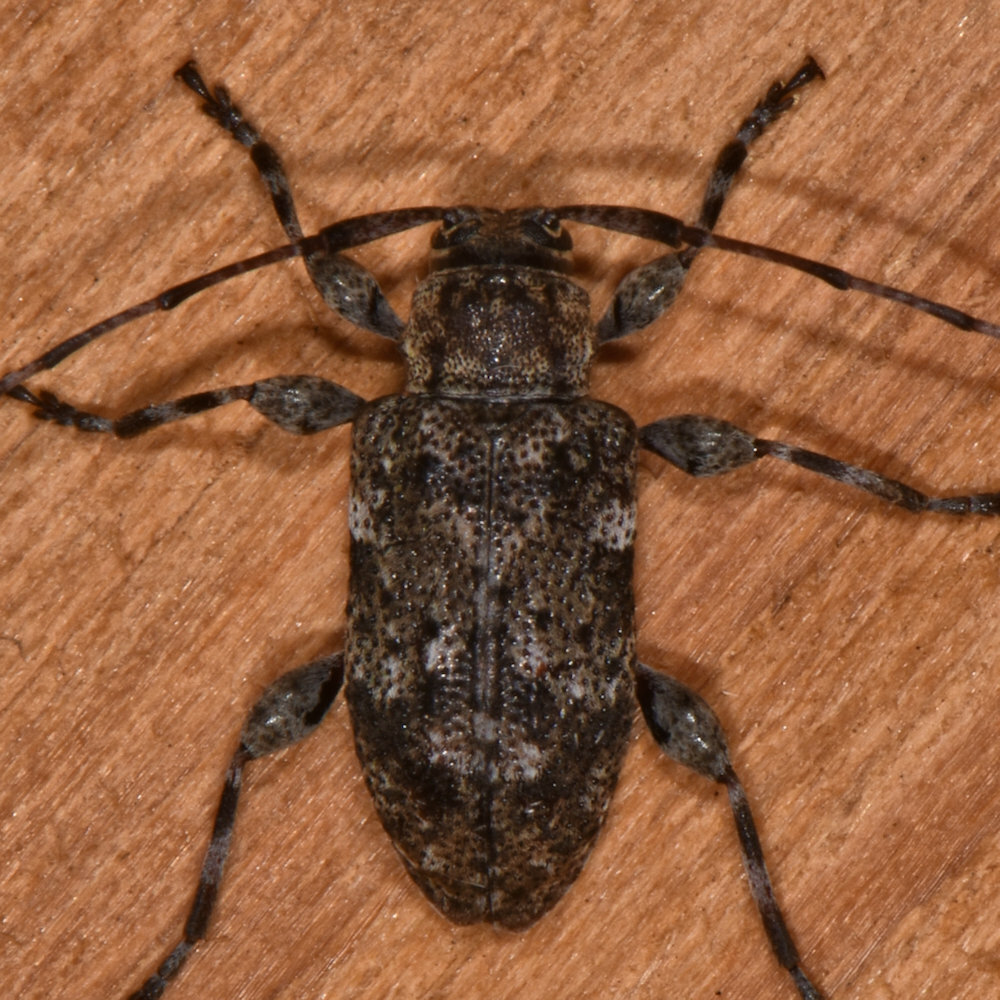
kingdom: Animalia
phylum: Arthropoda
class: Insecta
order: Coleoptera
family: Cerambycidae
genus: Astylopsis
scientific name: Astylopsis sexguttata
